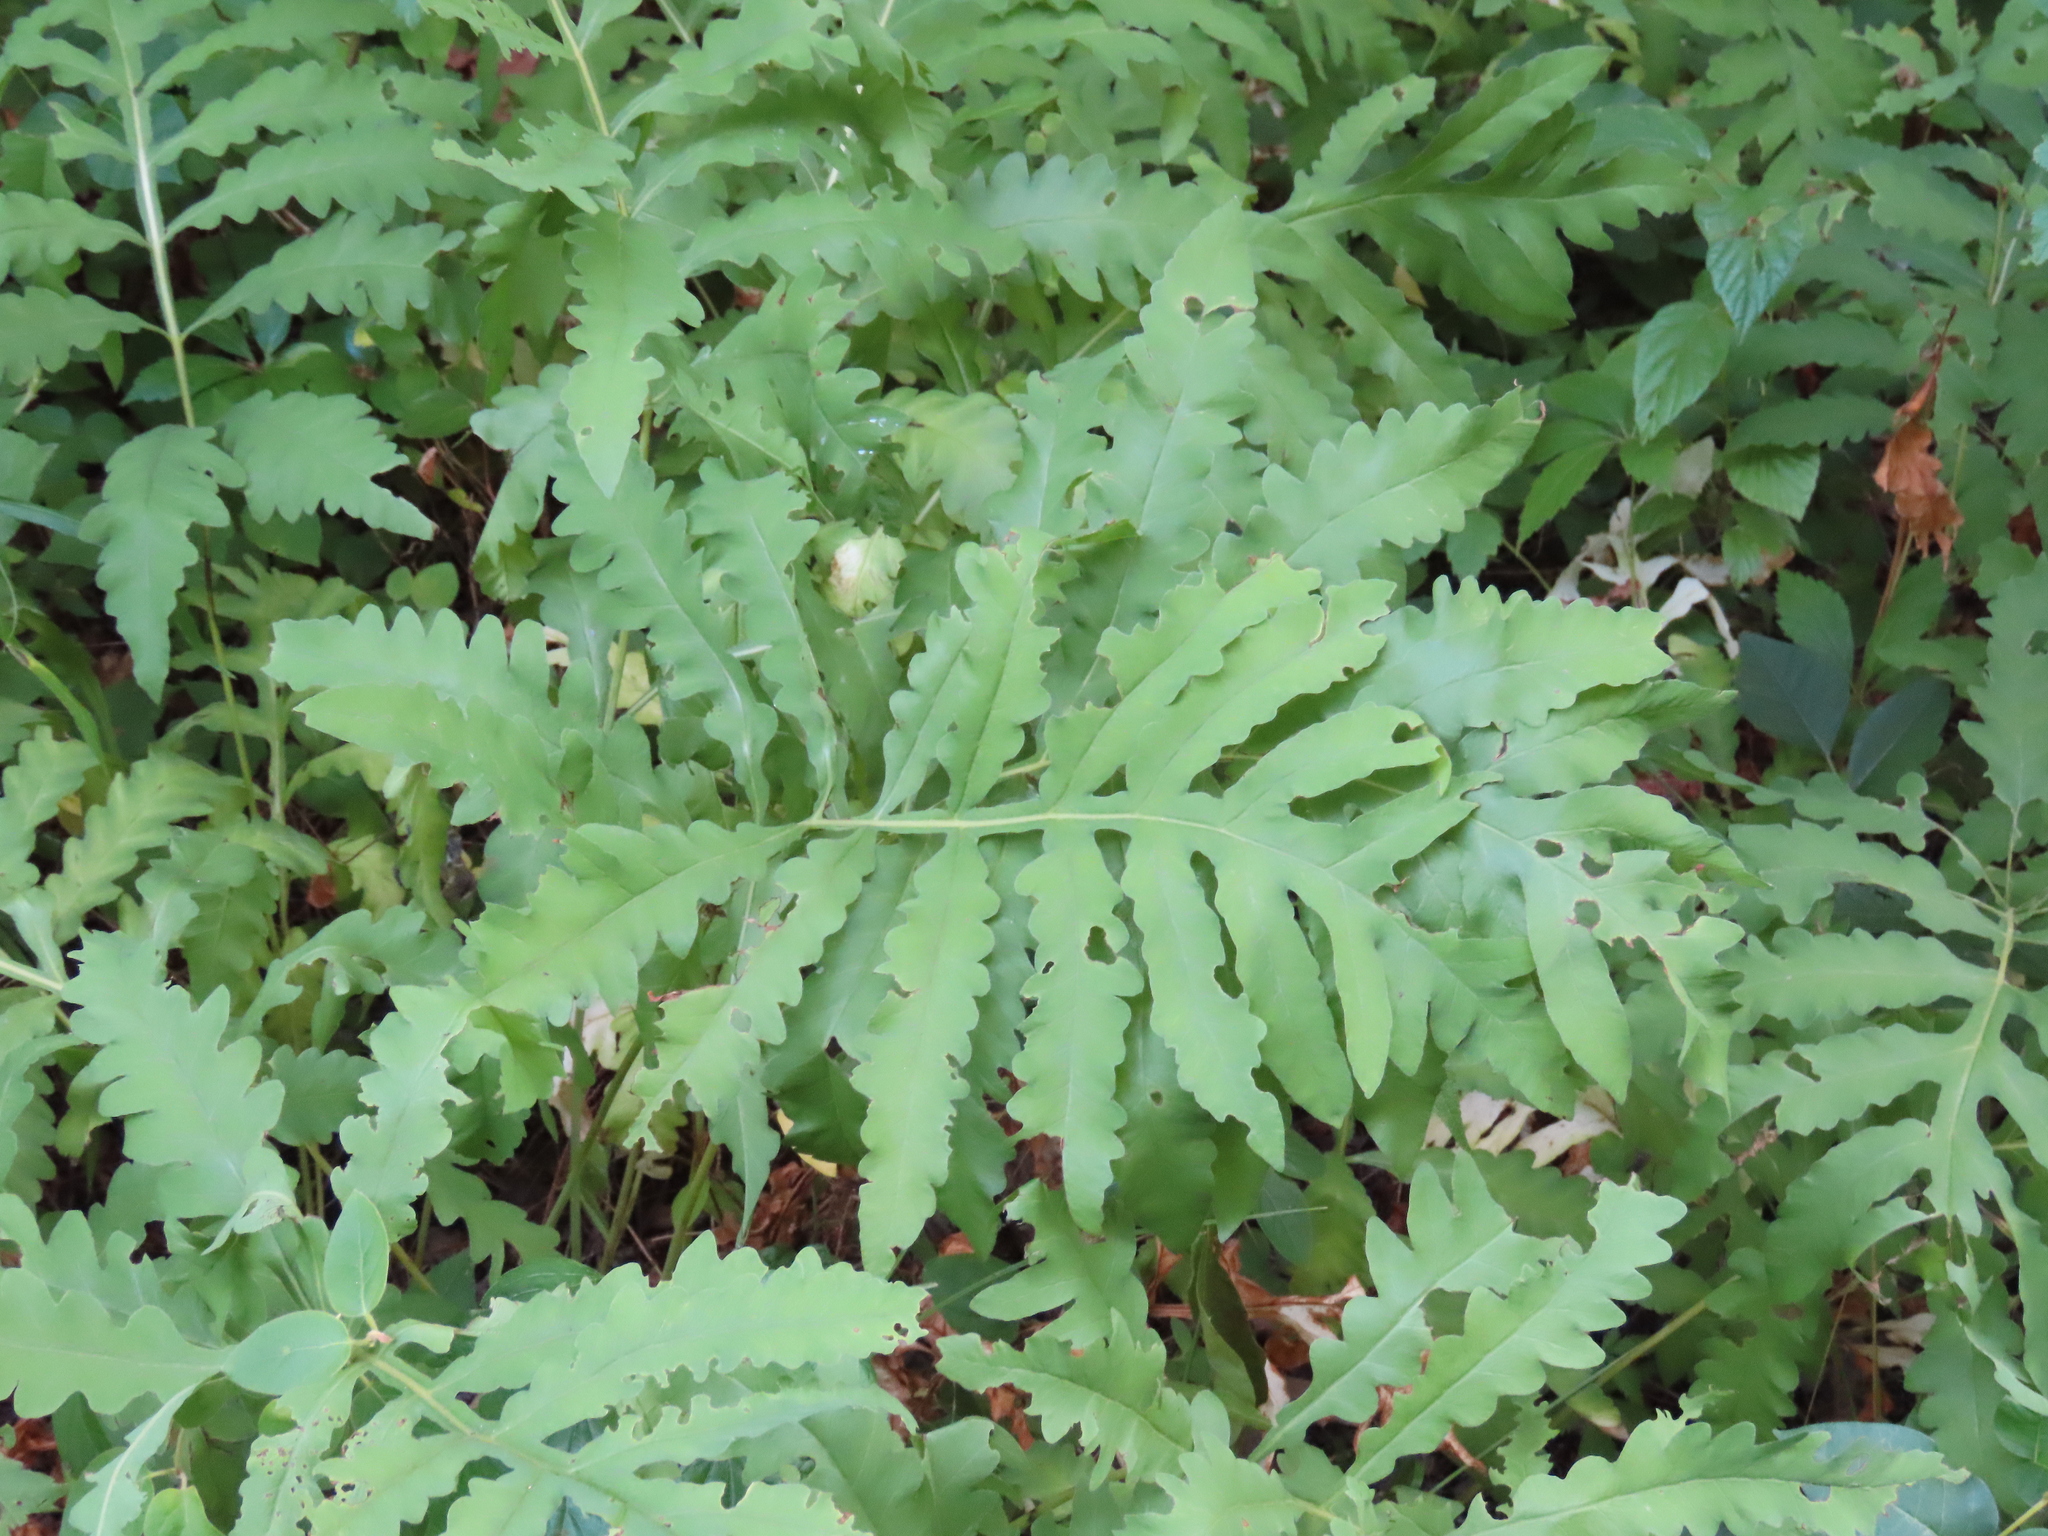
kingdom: Plantae
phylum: Tracheophyta
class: Polypodiopsida
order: Polypodiales
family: Onocleaceae
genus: Onoclea
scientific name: Onoclea sensibilis
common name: Sensitive fern
